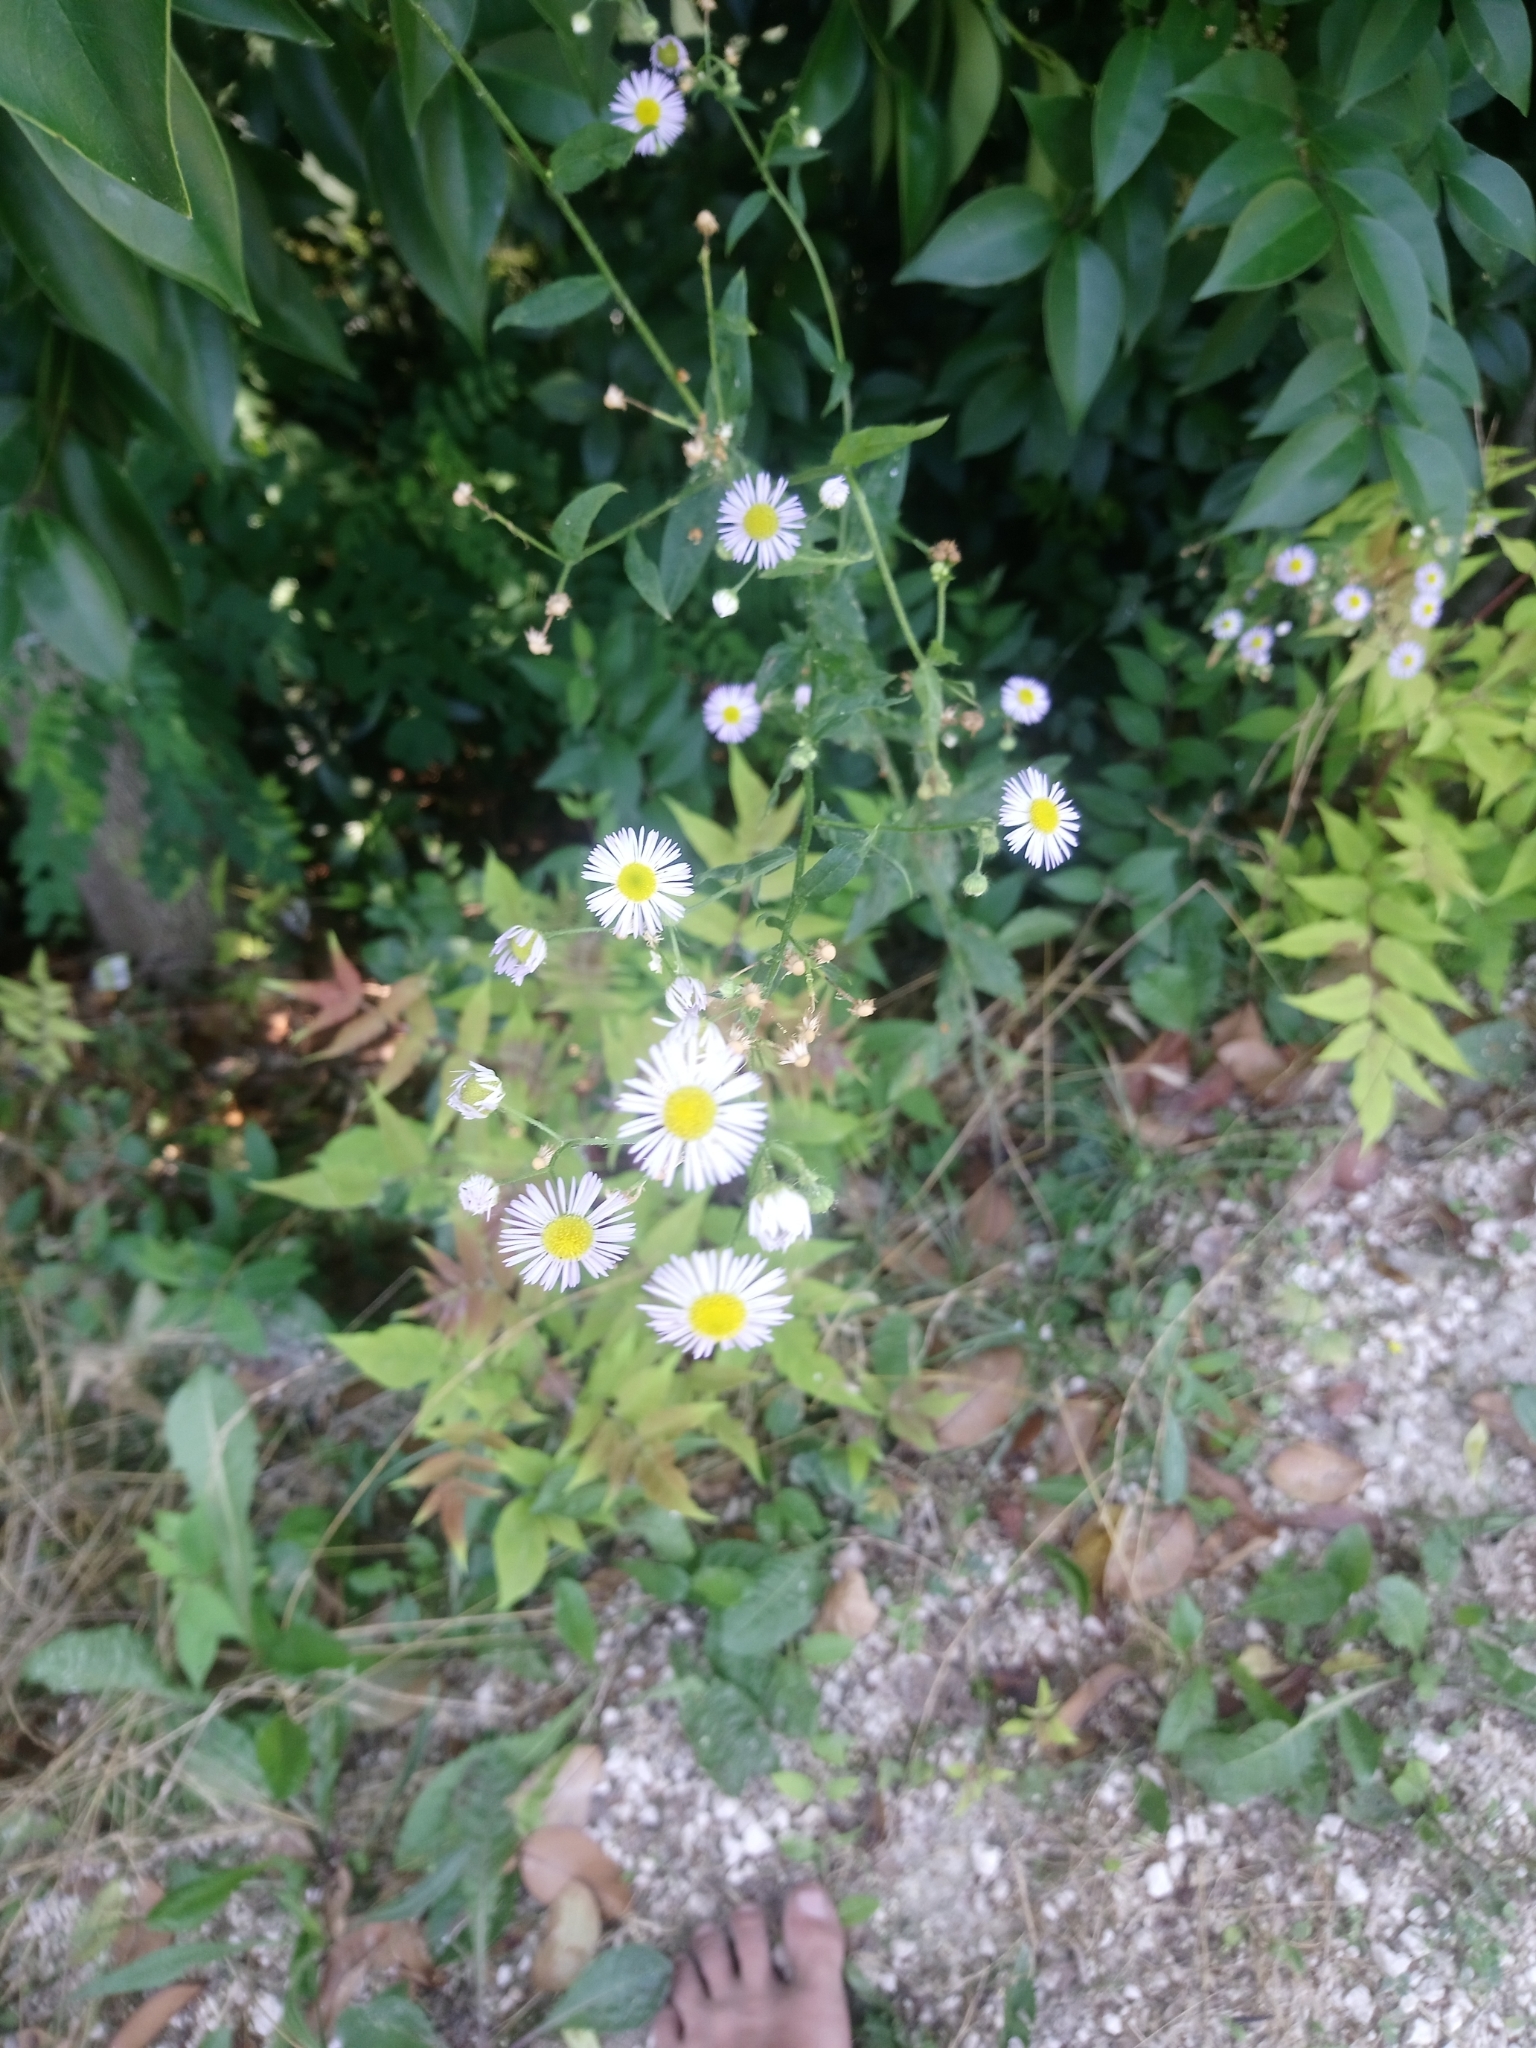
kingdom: Plantae
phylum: Tracheophyta
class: Magnoliopsida
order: Asterales
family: Asteraceae
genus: Erigeron
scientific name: Erigeron annuus
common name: Tall fleabane
